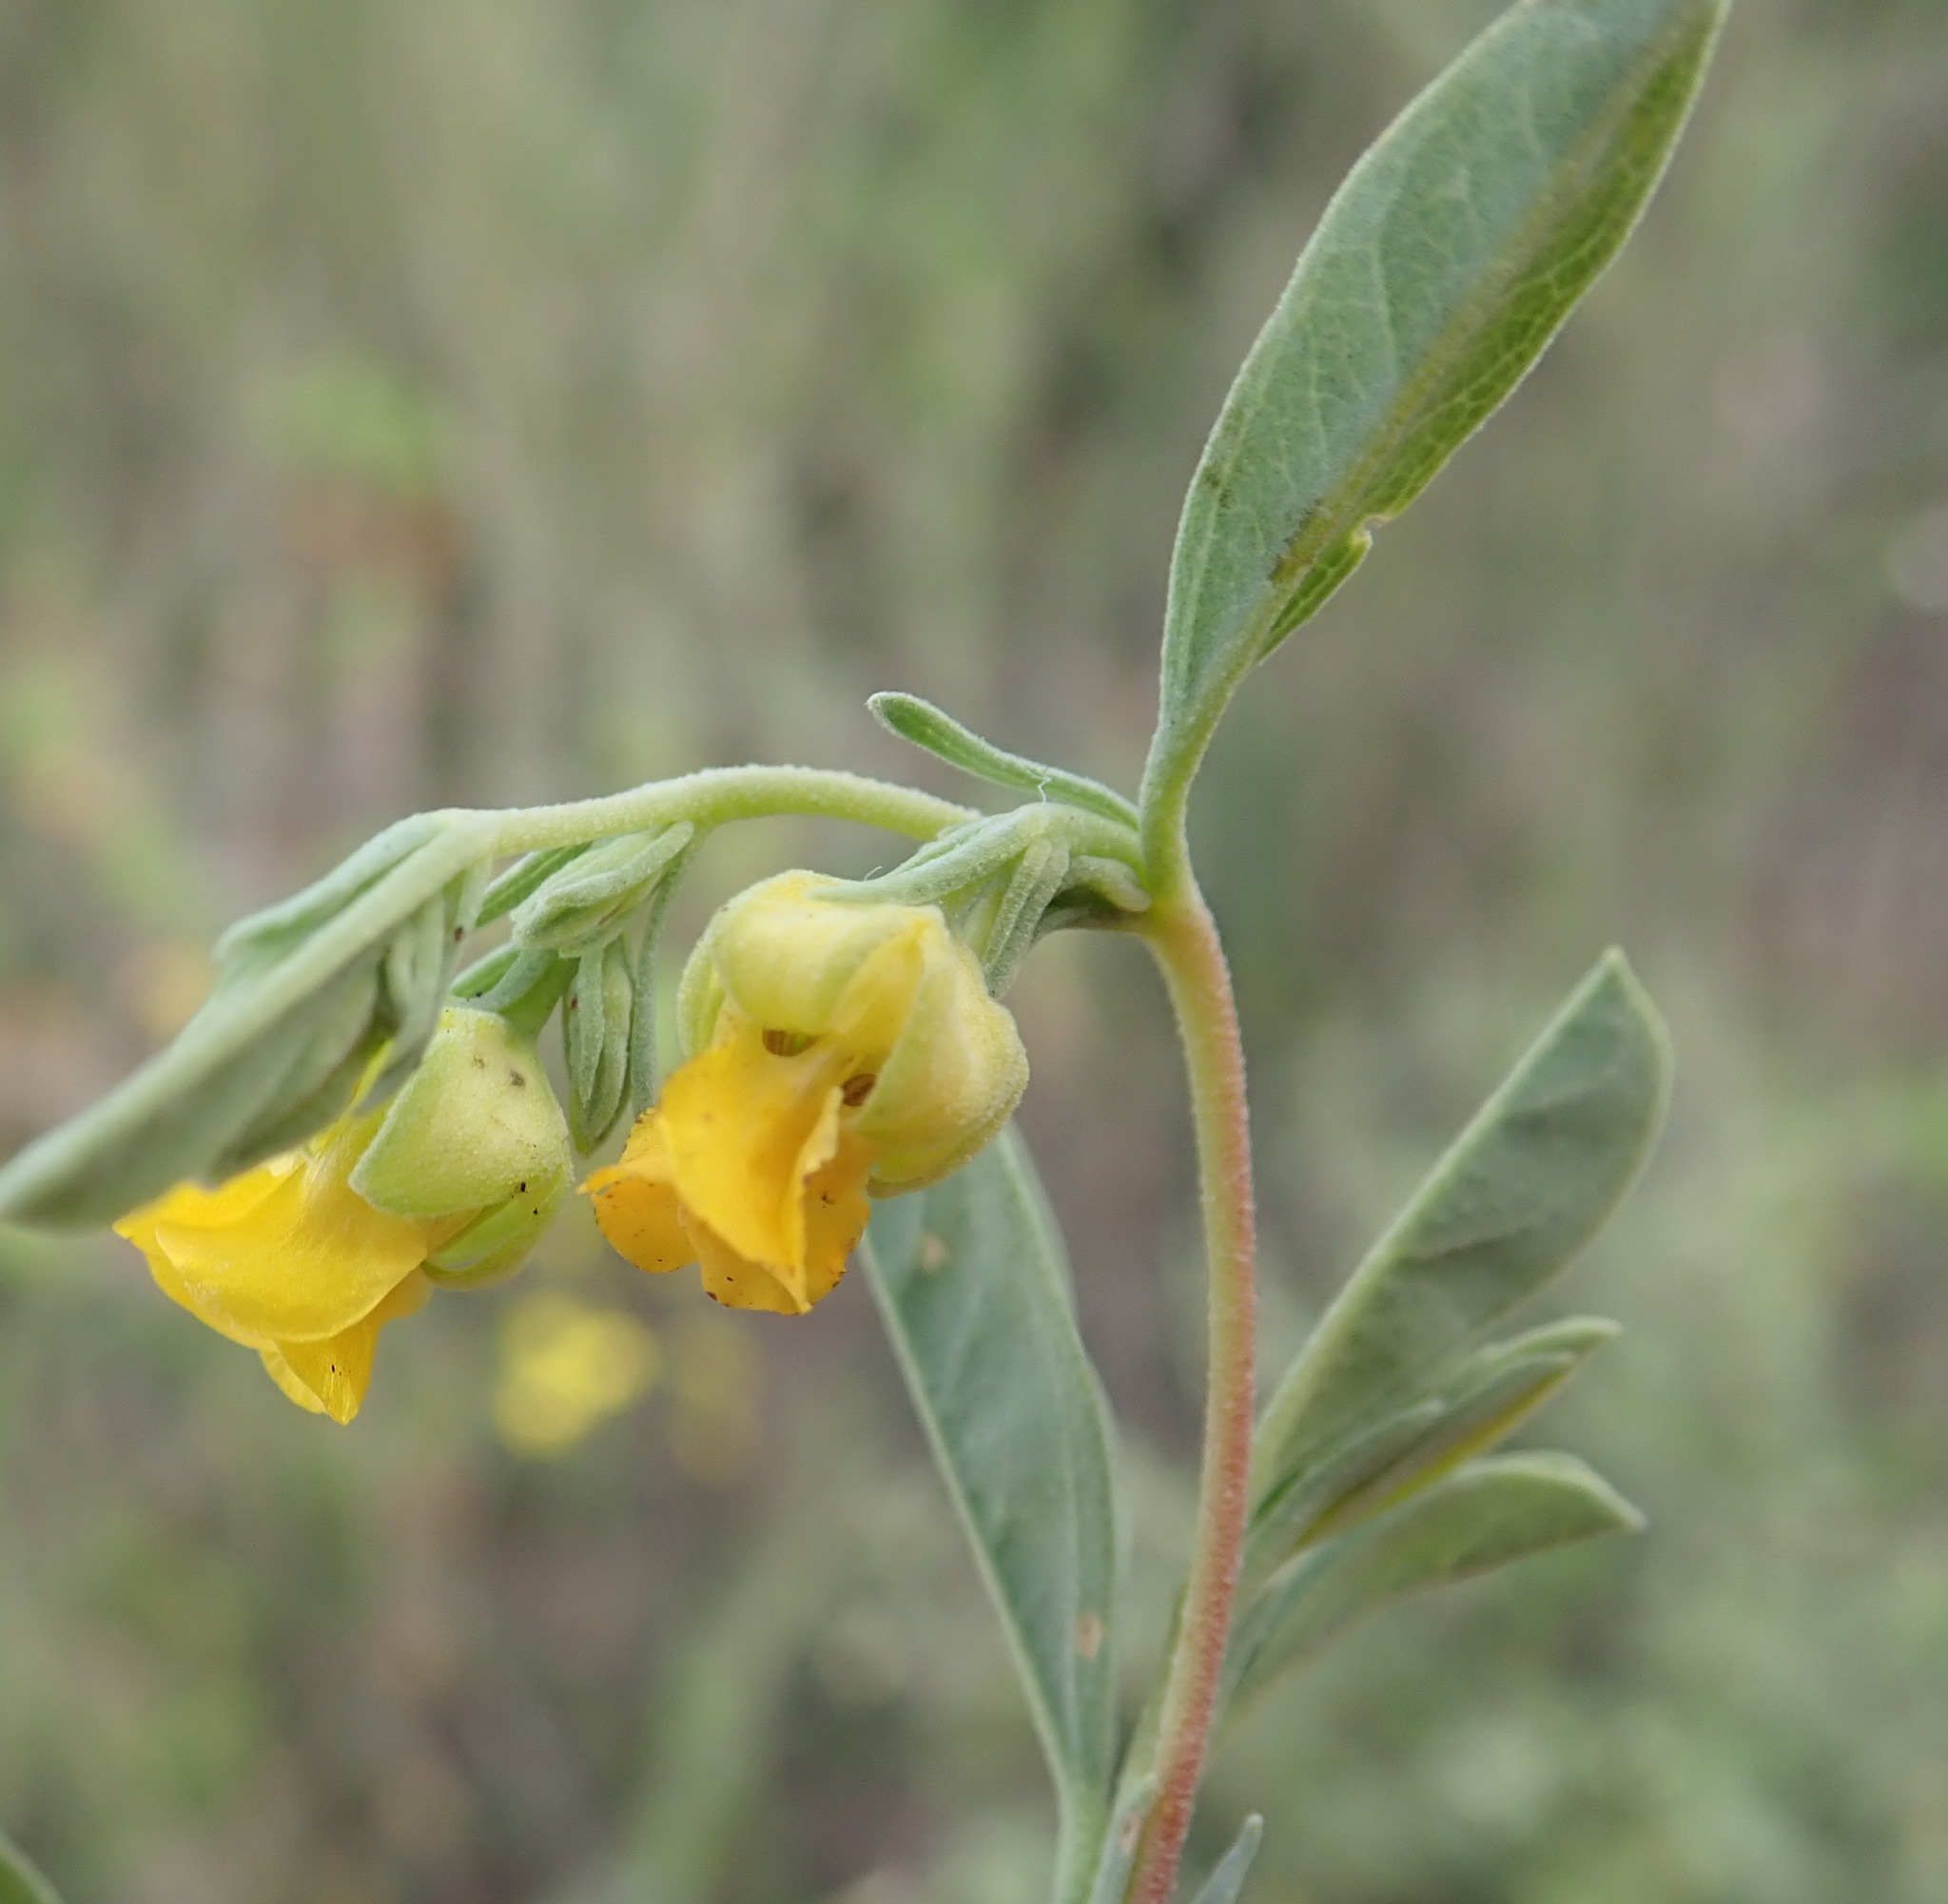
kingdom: Plantae
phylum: Tracheophyta
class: Magnoliopsida
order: Malvales
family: Malvaceae
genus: Hermannia
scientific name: Hermannia lavandulifolia
